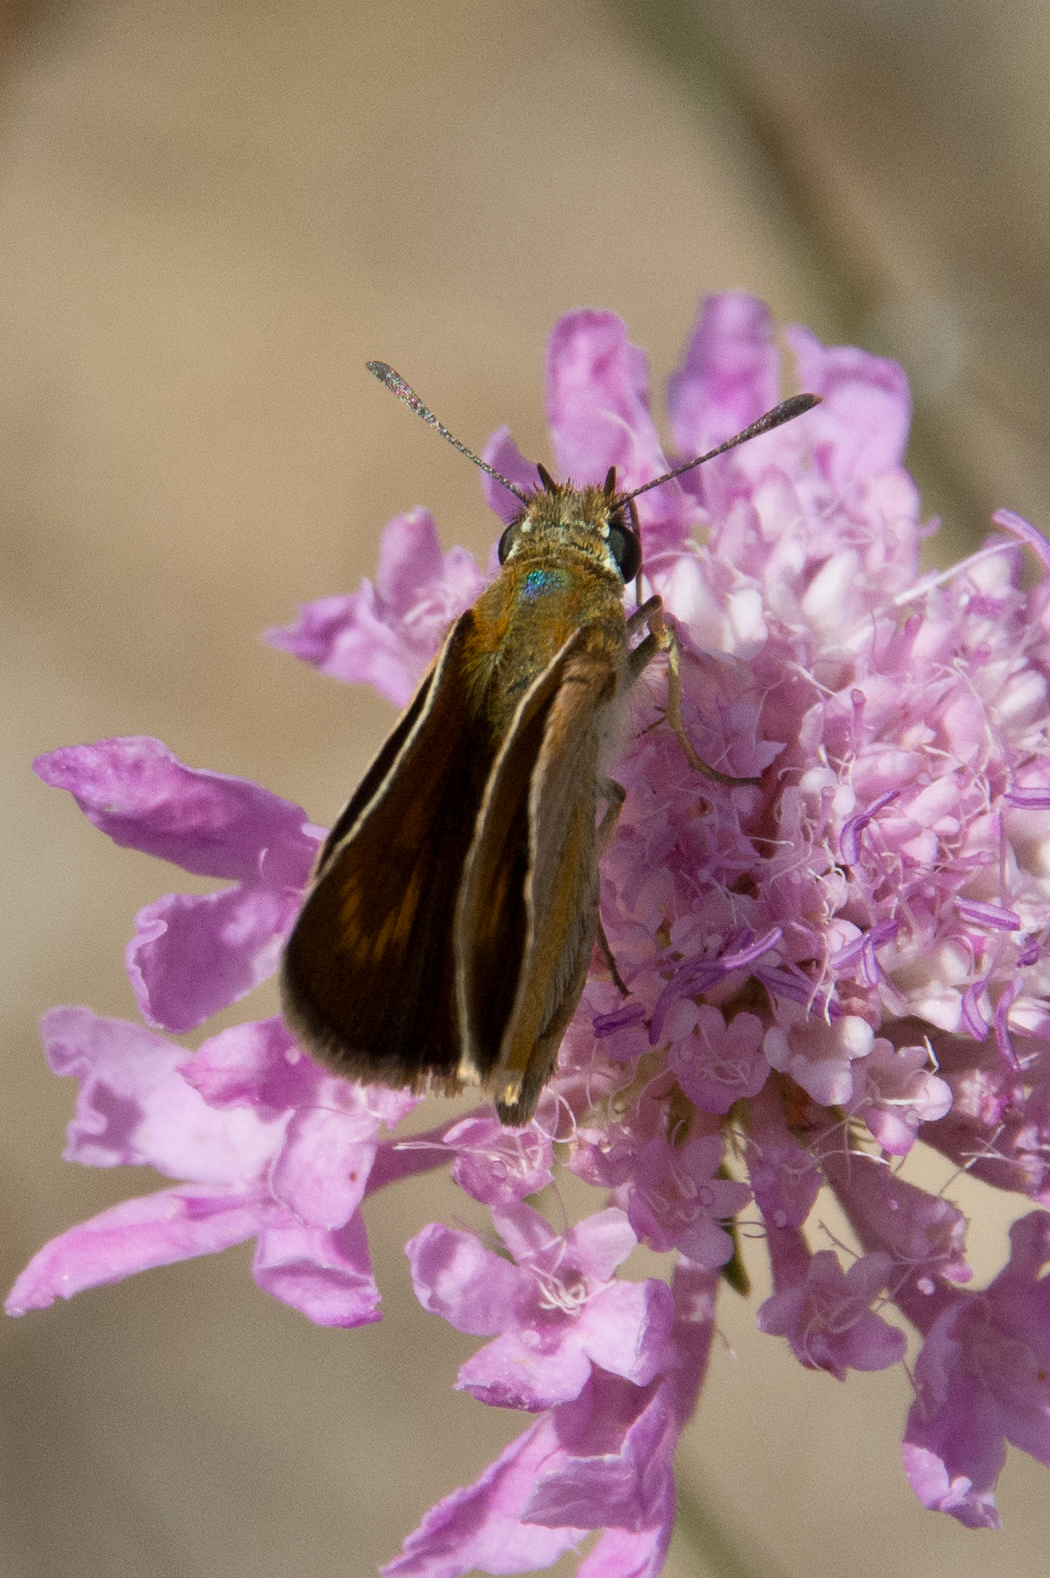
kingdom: Animalia
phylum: Arthropoda
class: Insecta
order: Lepidoptera
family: Hesperiidae
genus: Thymelicus
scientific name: Thymelicus acteon
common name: Lulworth skipper
